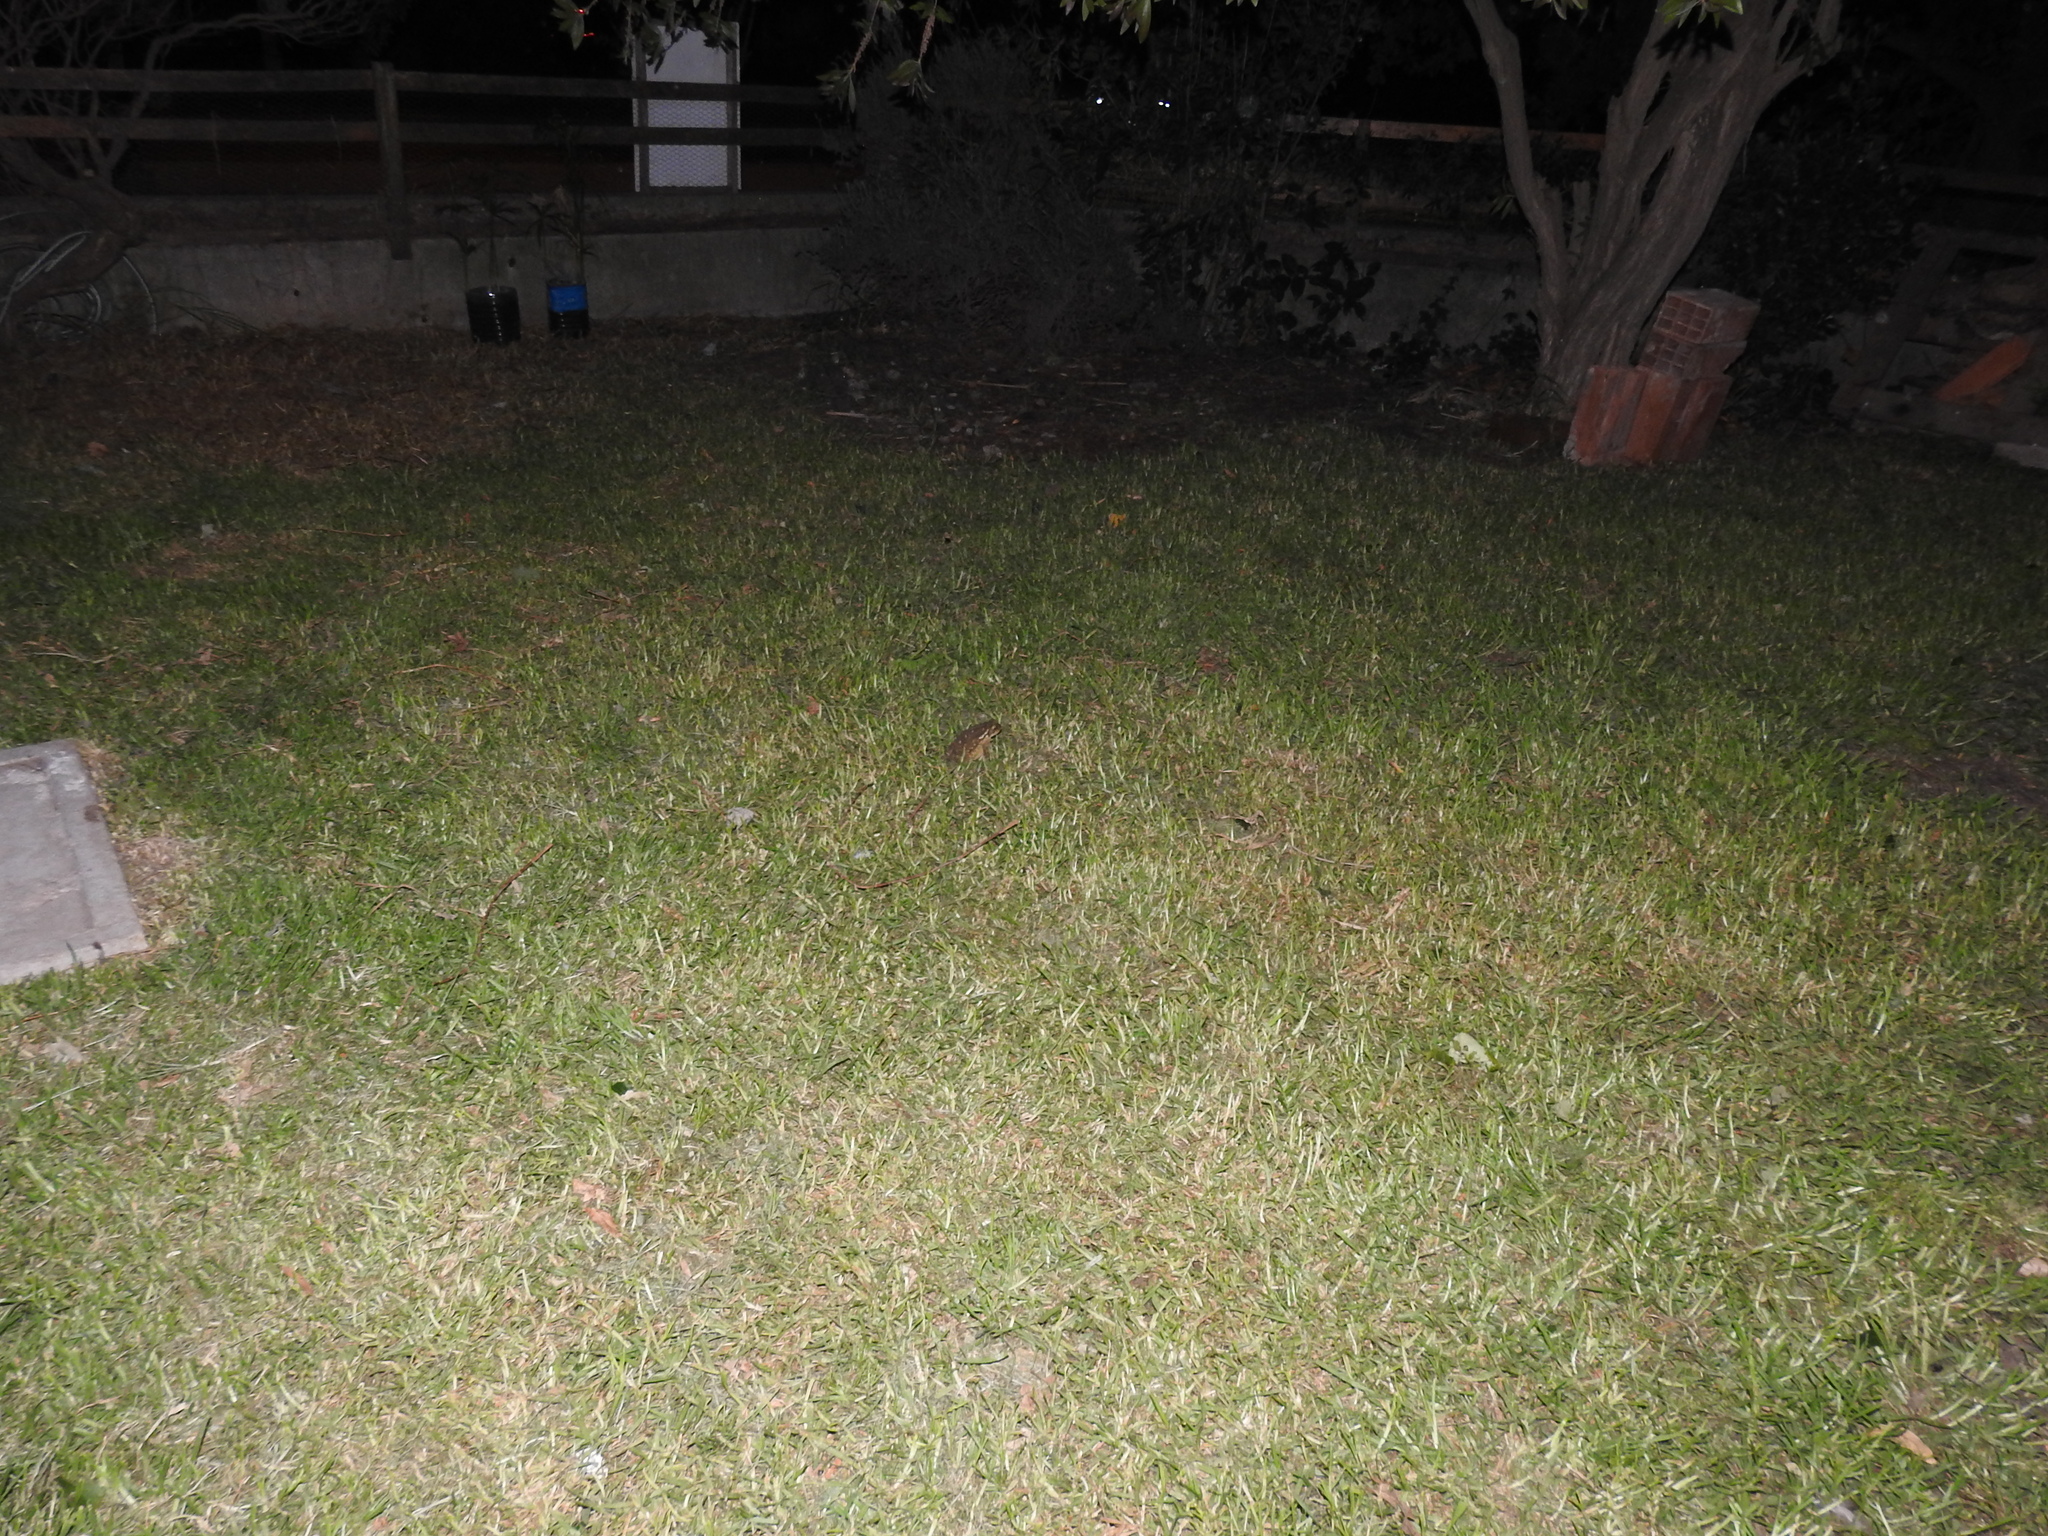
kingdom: Animalia
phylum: Chordata
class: Amphibia
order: Anura
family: Bufonidae
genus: Rhinella
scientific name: Rhinella arenarum
